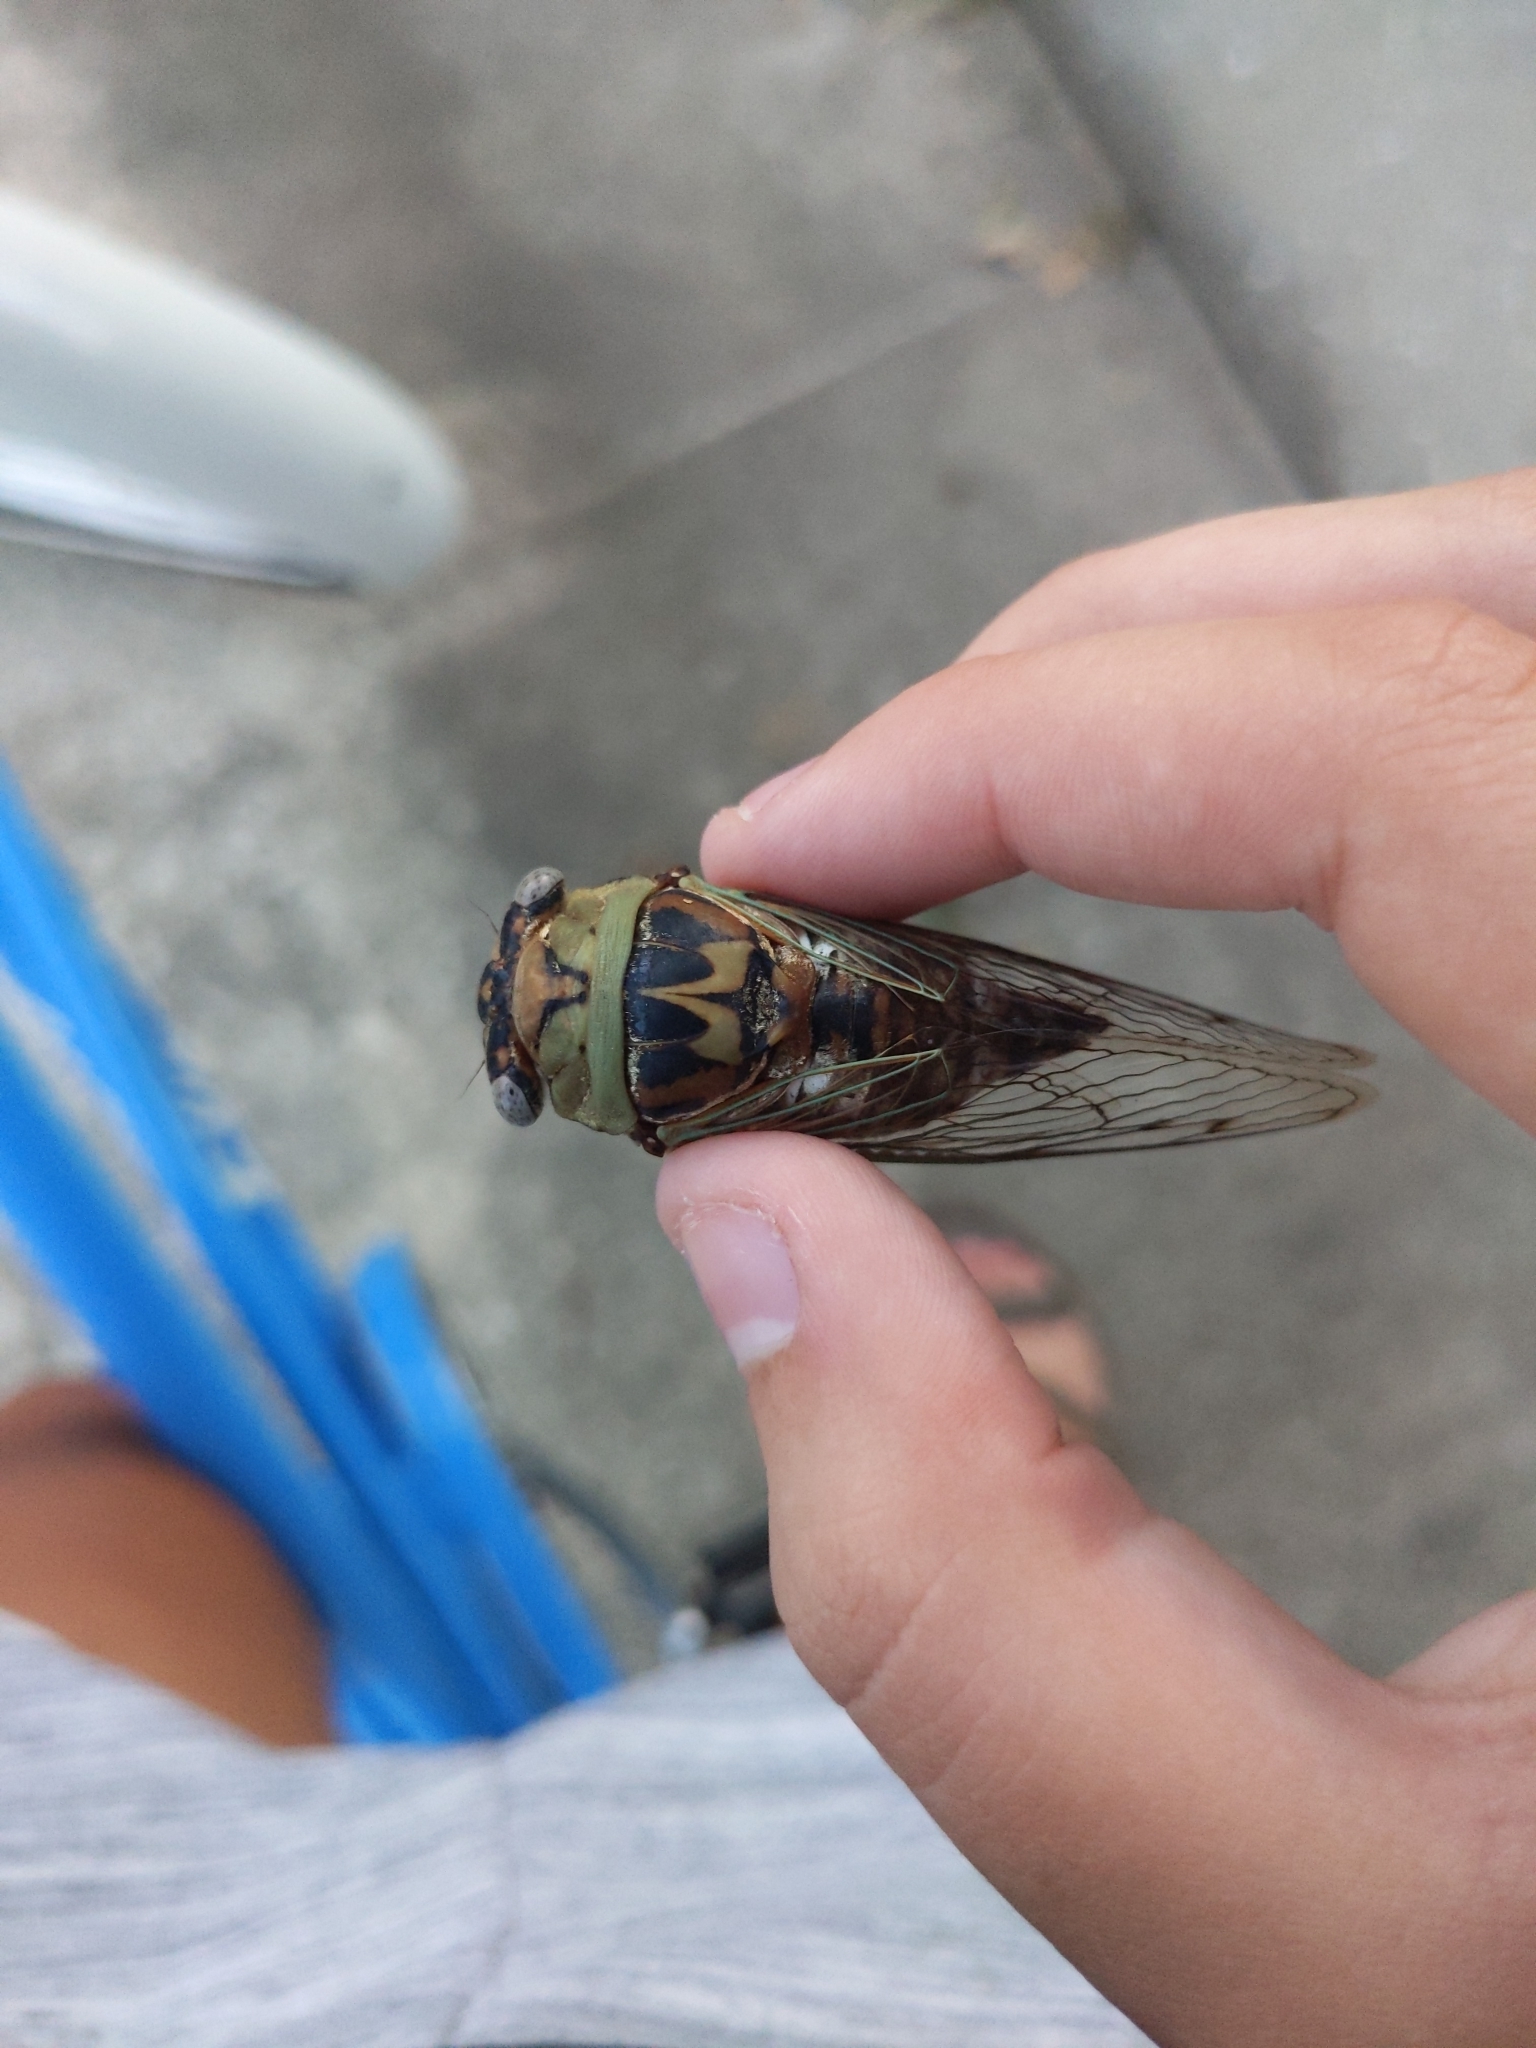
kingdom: Animalia
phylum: Arthropoda
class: Insecta
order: Hemiptera
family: Cicadidae
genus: Megatibicen
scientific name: Megatibicen resh
